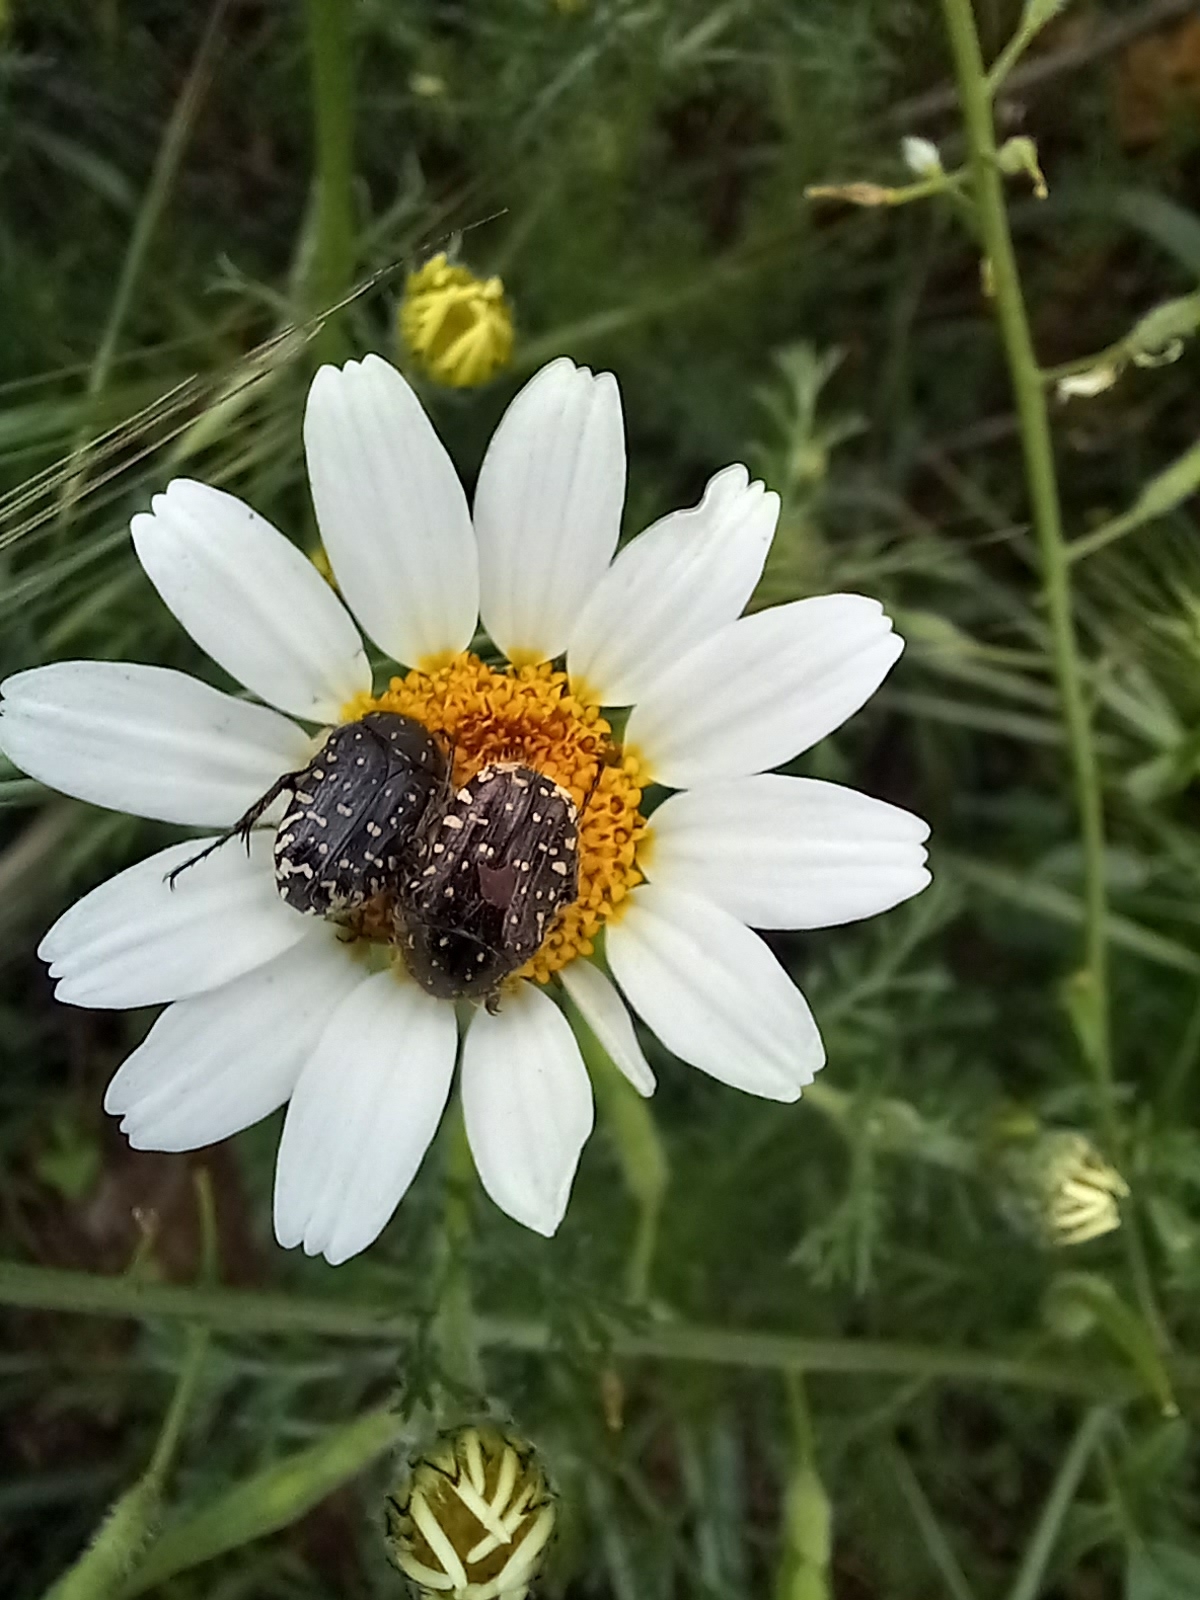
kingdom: Animalia
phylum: Arthropoda
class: Insecta
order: Coleoptera
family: Scarabaeidae
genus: Oxythyrea
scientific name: Oxythyrea funesta
